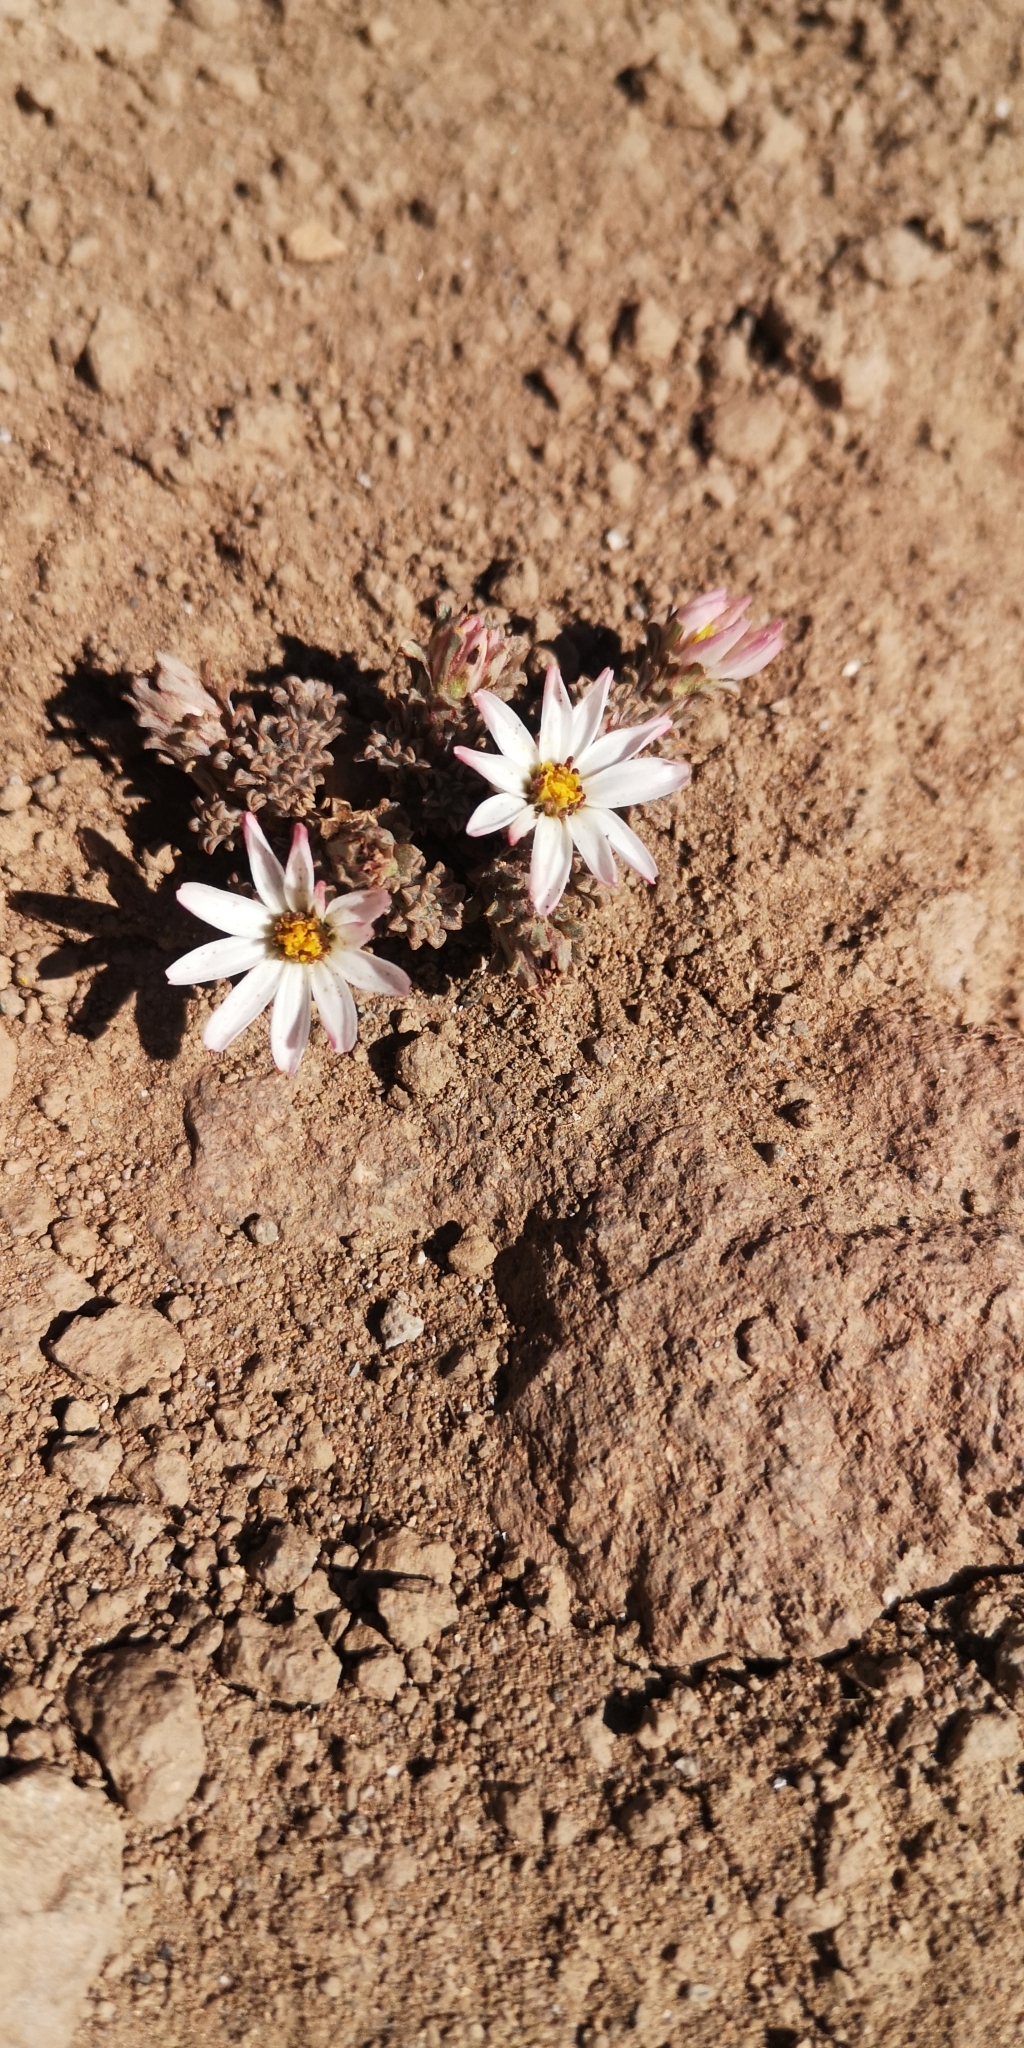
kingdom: Plantae
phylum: Tracheophyta
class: Magnoliopsida
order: Asterales
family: Asteraceae
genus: Oriastrum
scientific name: Oriastrum lycopodioides
